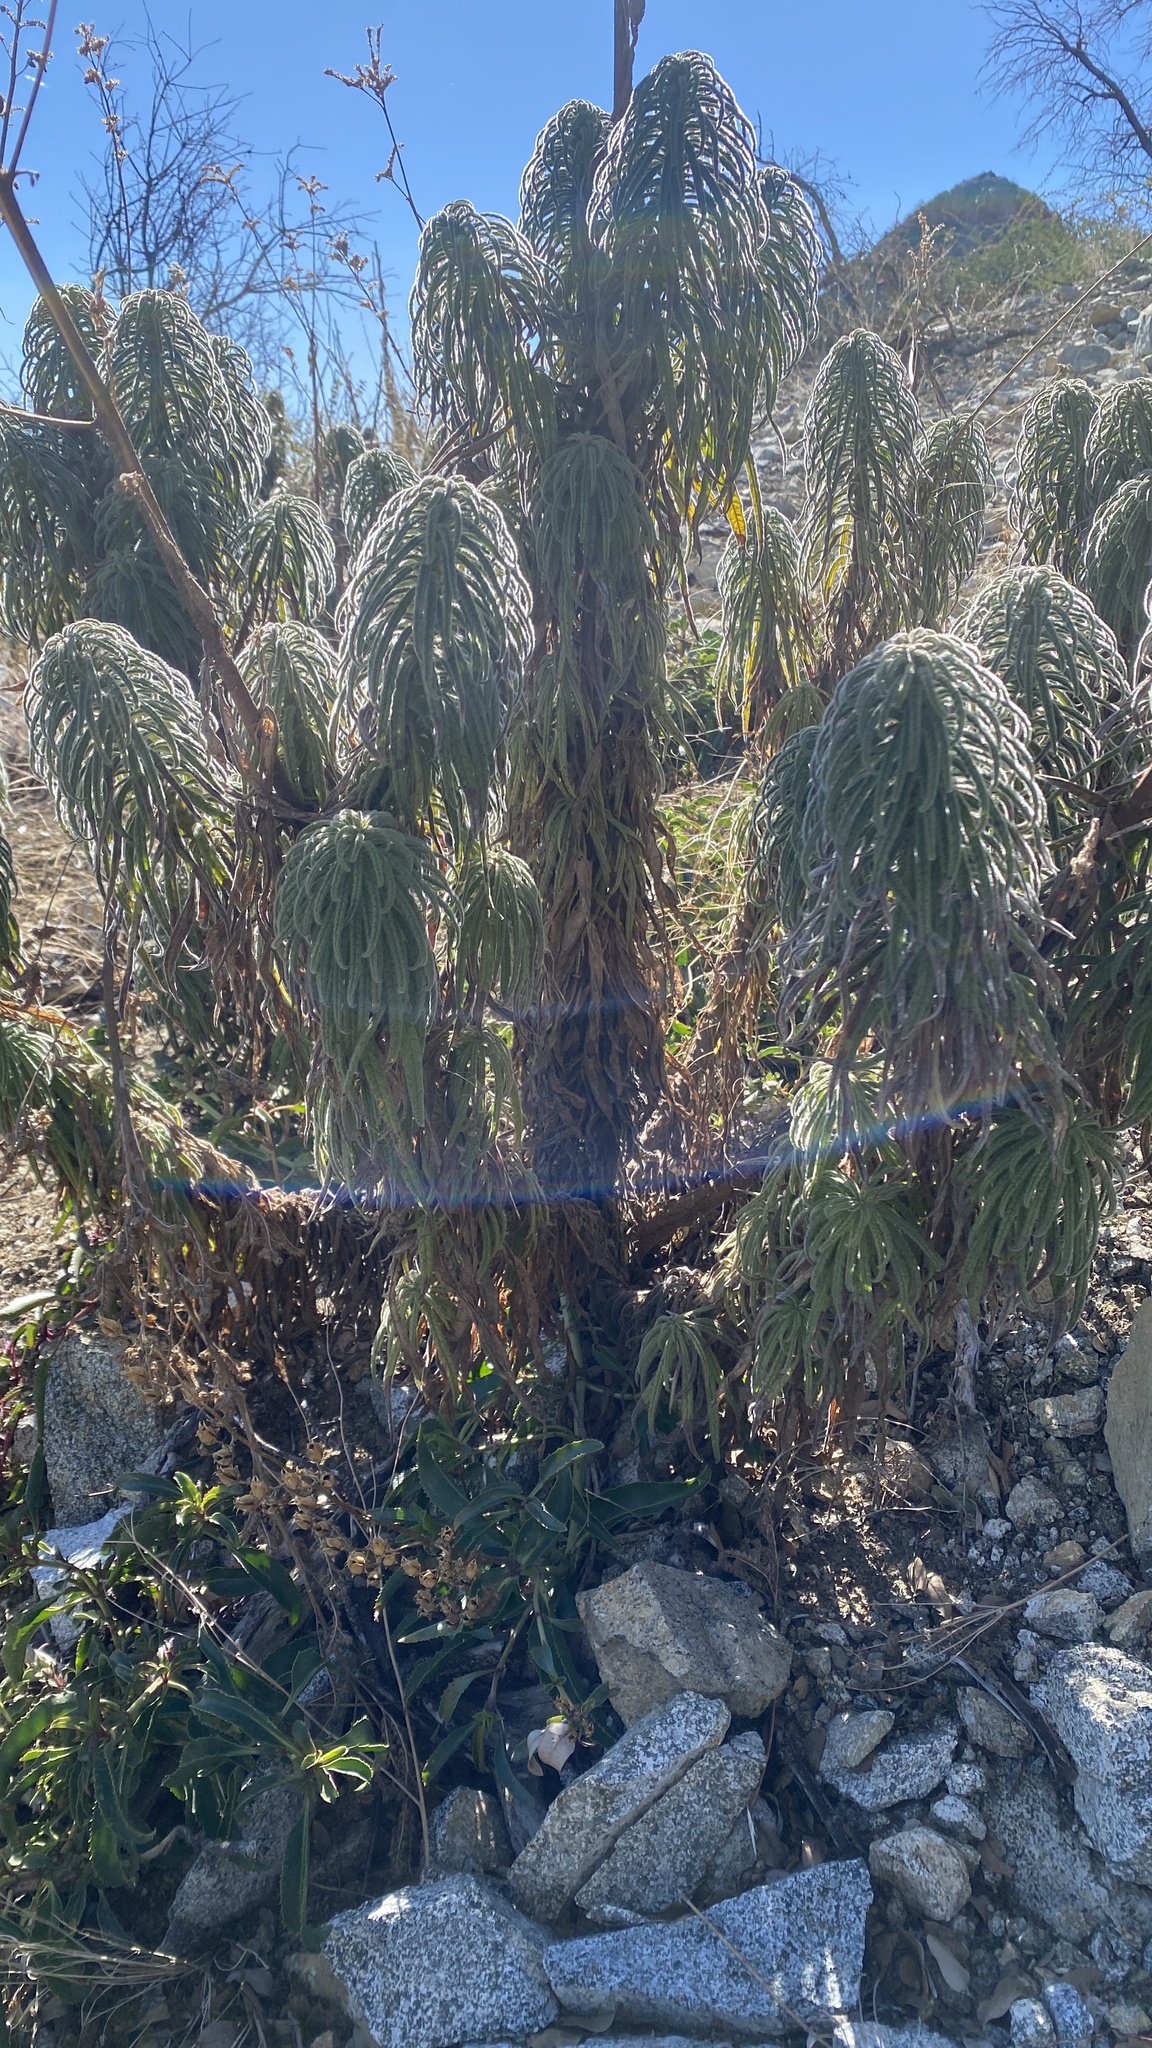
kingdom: Plantae
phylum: Tracheophyta
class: Magnoliopsida
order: Boraginales
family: Namaceae
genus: Turricula
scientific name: Turricula parryi
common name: Poodle-dog-bush
